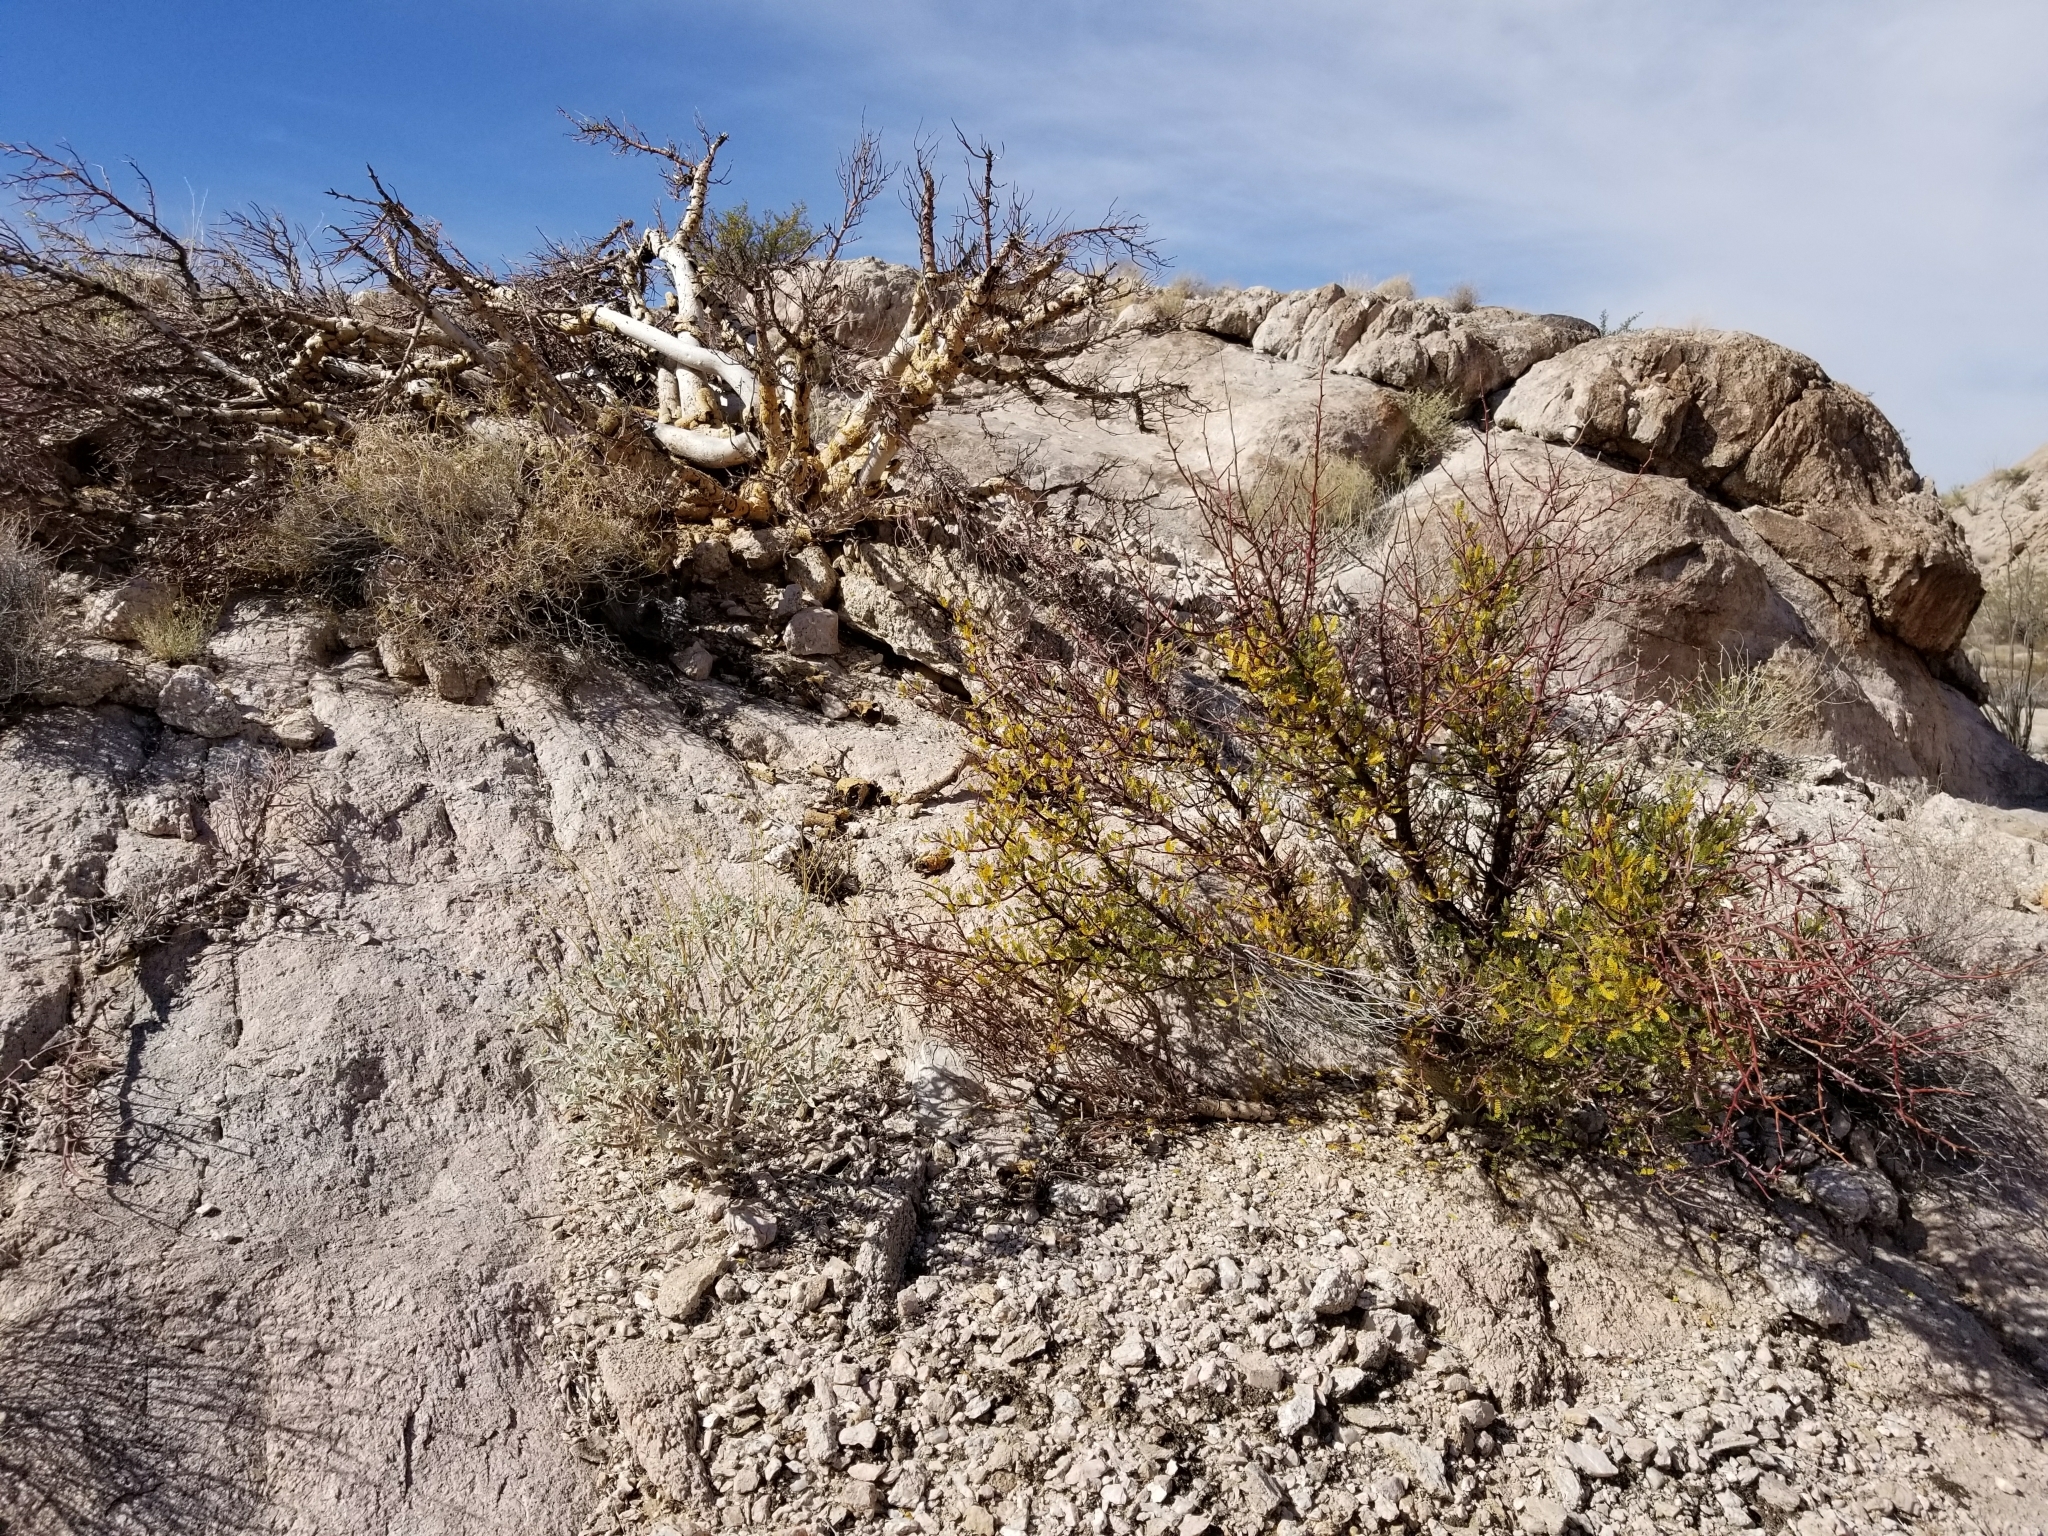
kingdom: Plantae
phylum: Tracheophyta
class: Magnoliopsida
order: Sapindales
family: Burseraceae
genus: Bursera
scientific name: Bursera microphylla
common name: Elephant tree
